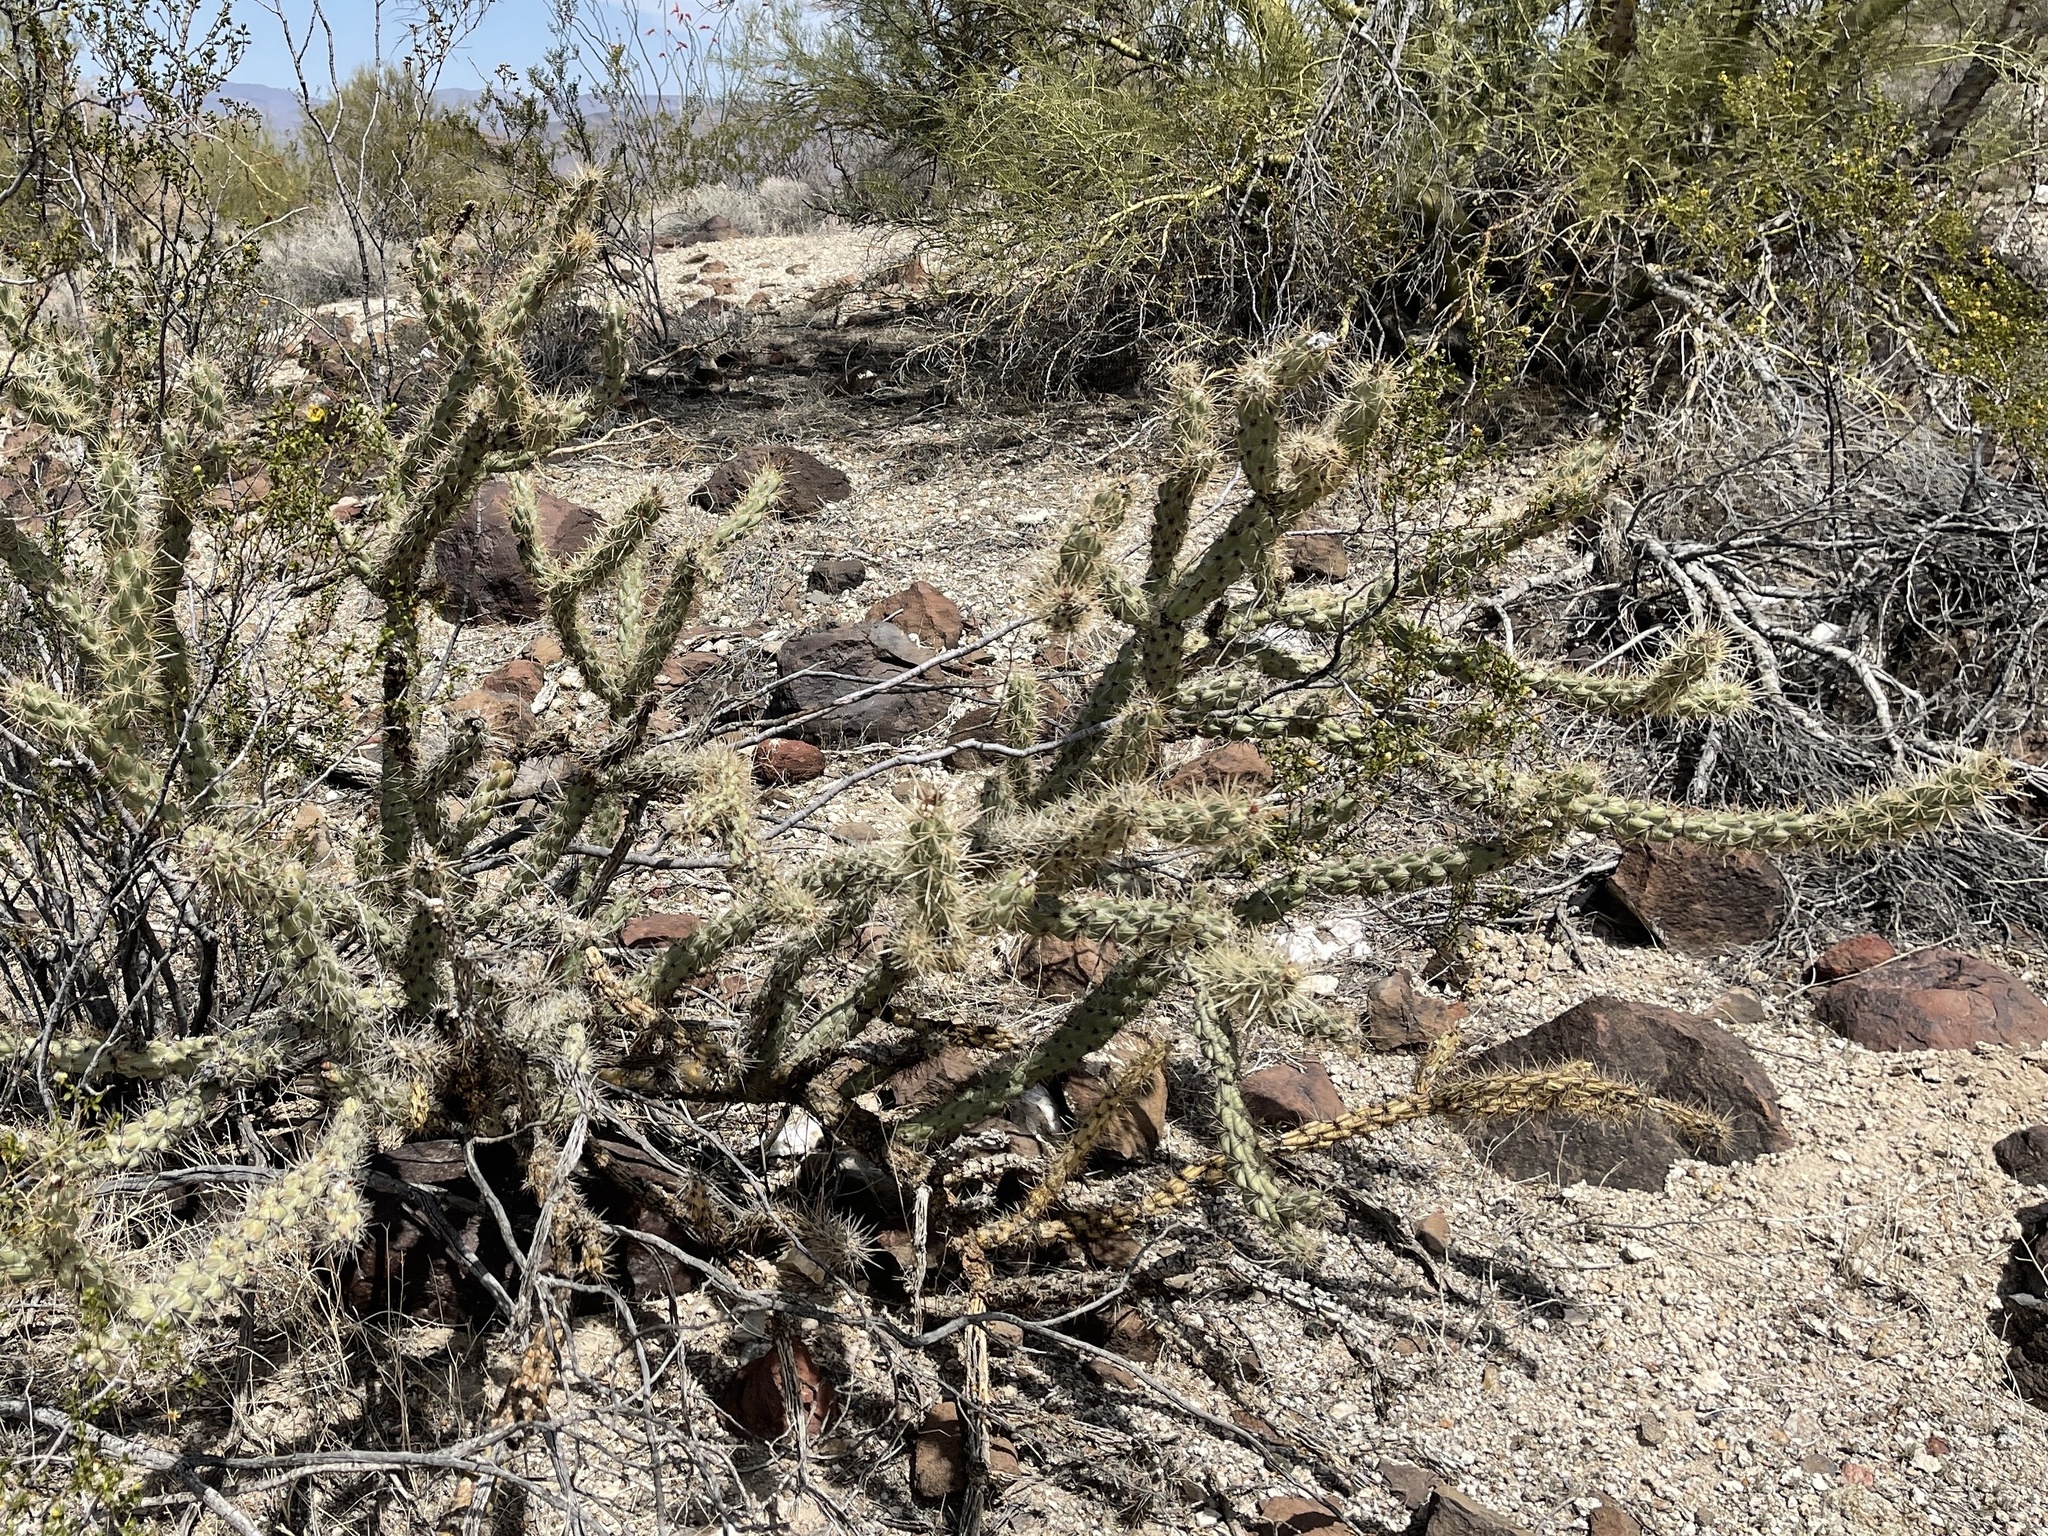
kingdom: Plantae
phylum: Tracheophyta
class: Magnoliopsida
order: Caryophyllales
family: Cactaceae
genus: Cylindropuntia
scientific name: Cylindropuntia acanthocarpa
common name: Buckhorn cholla
